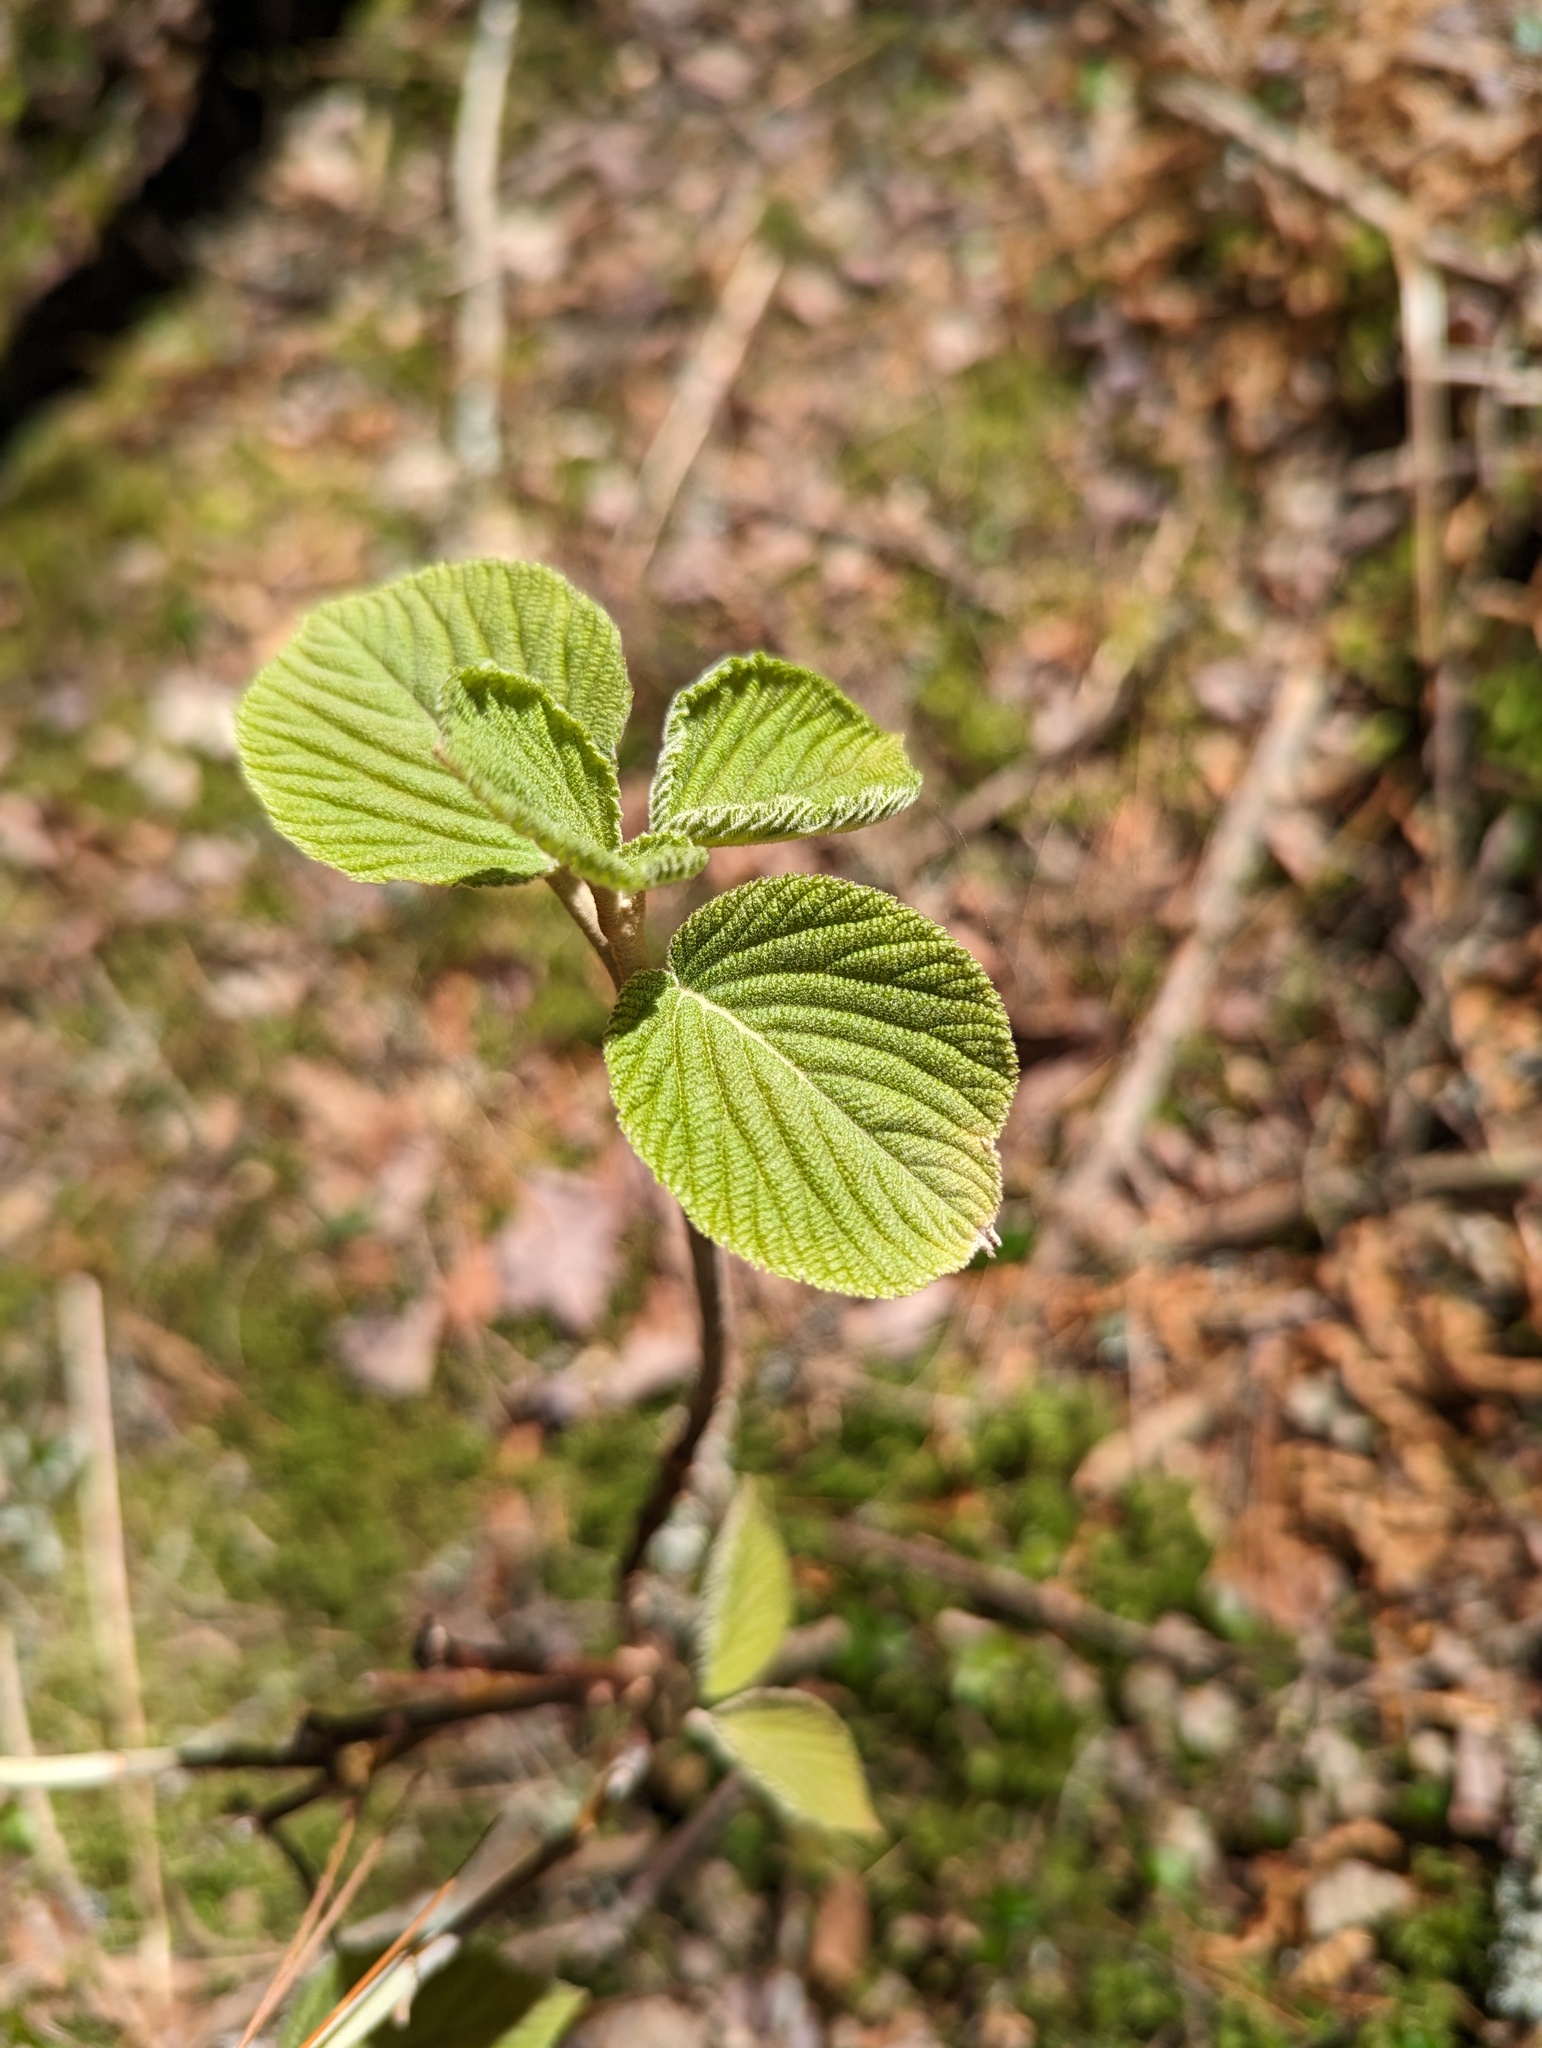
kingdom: Plantae
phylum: Tracheophyta
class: Magnoliopsida
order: Dipsacales
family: Viburnaceae
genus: Viburnum
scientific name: Viburnum lantanoides
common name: Hobblebush
